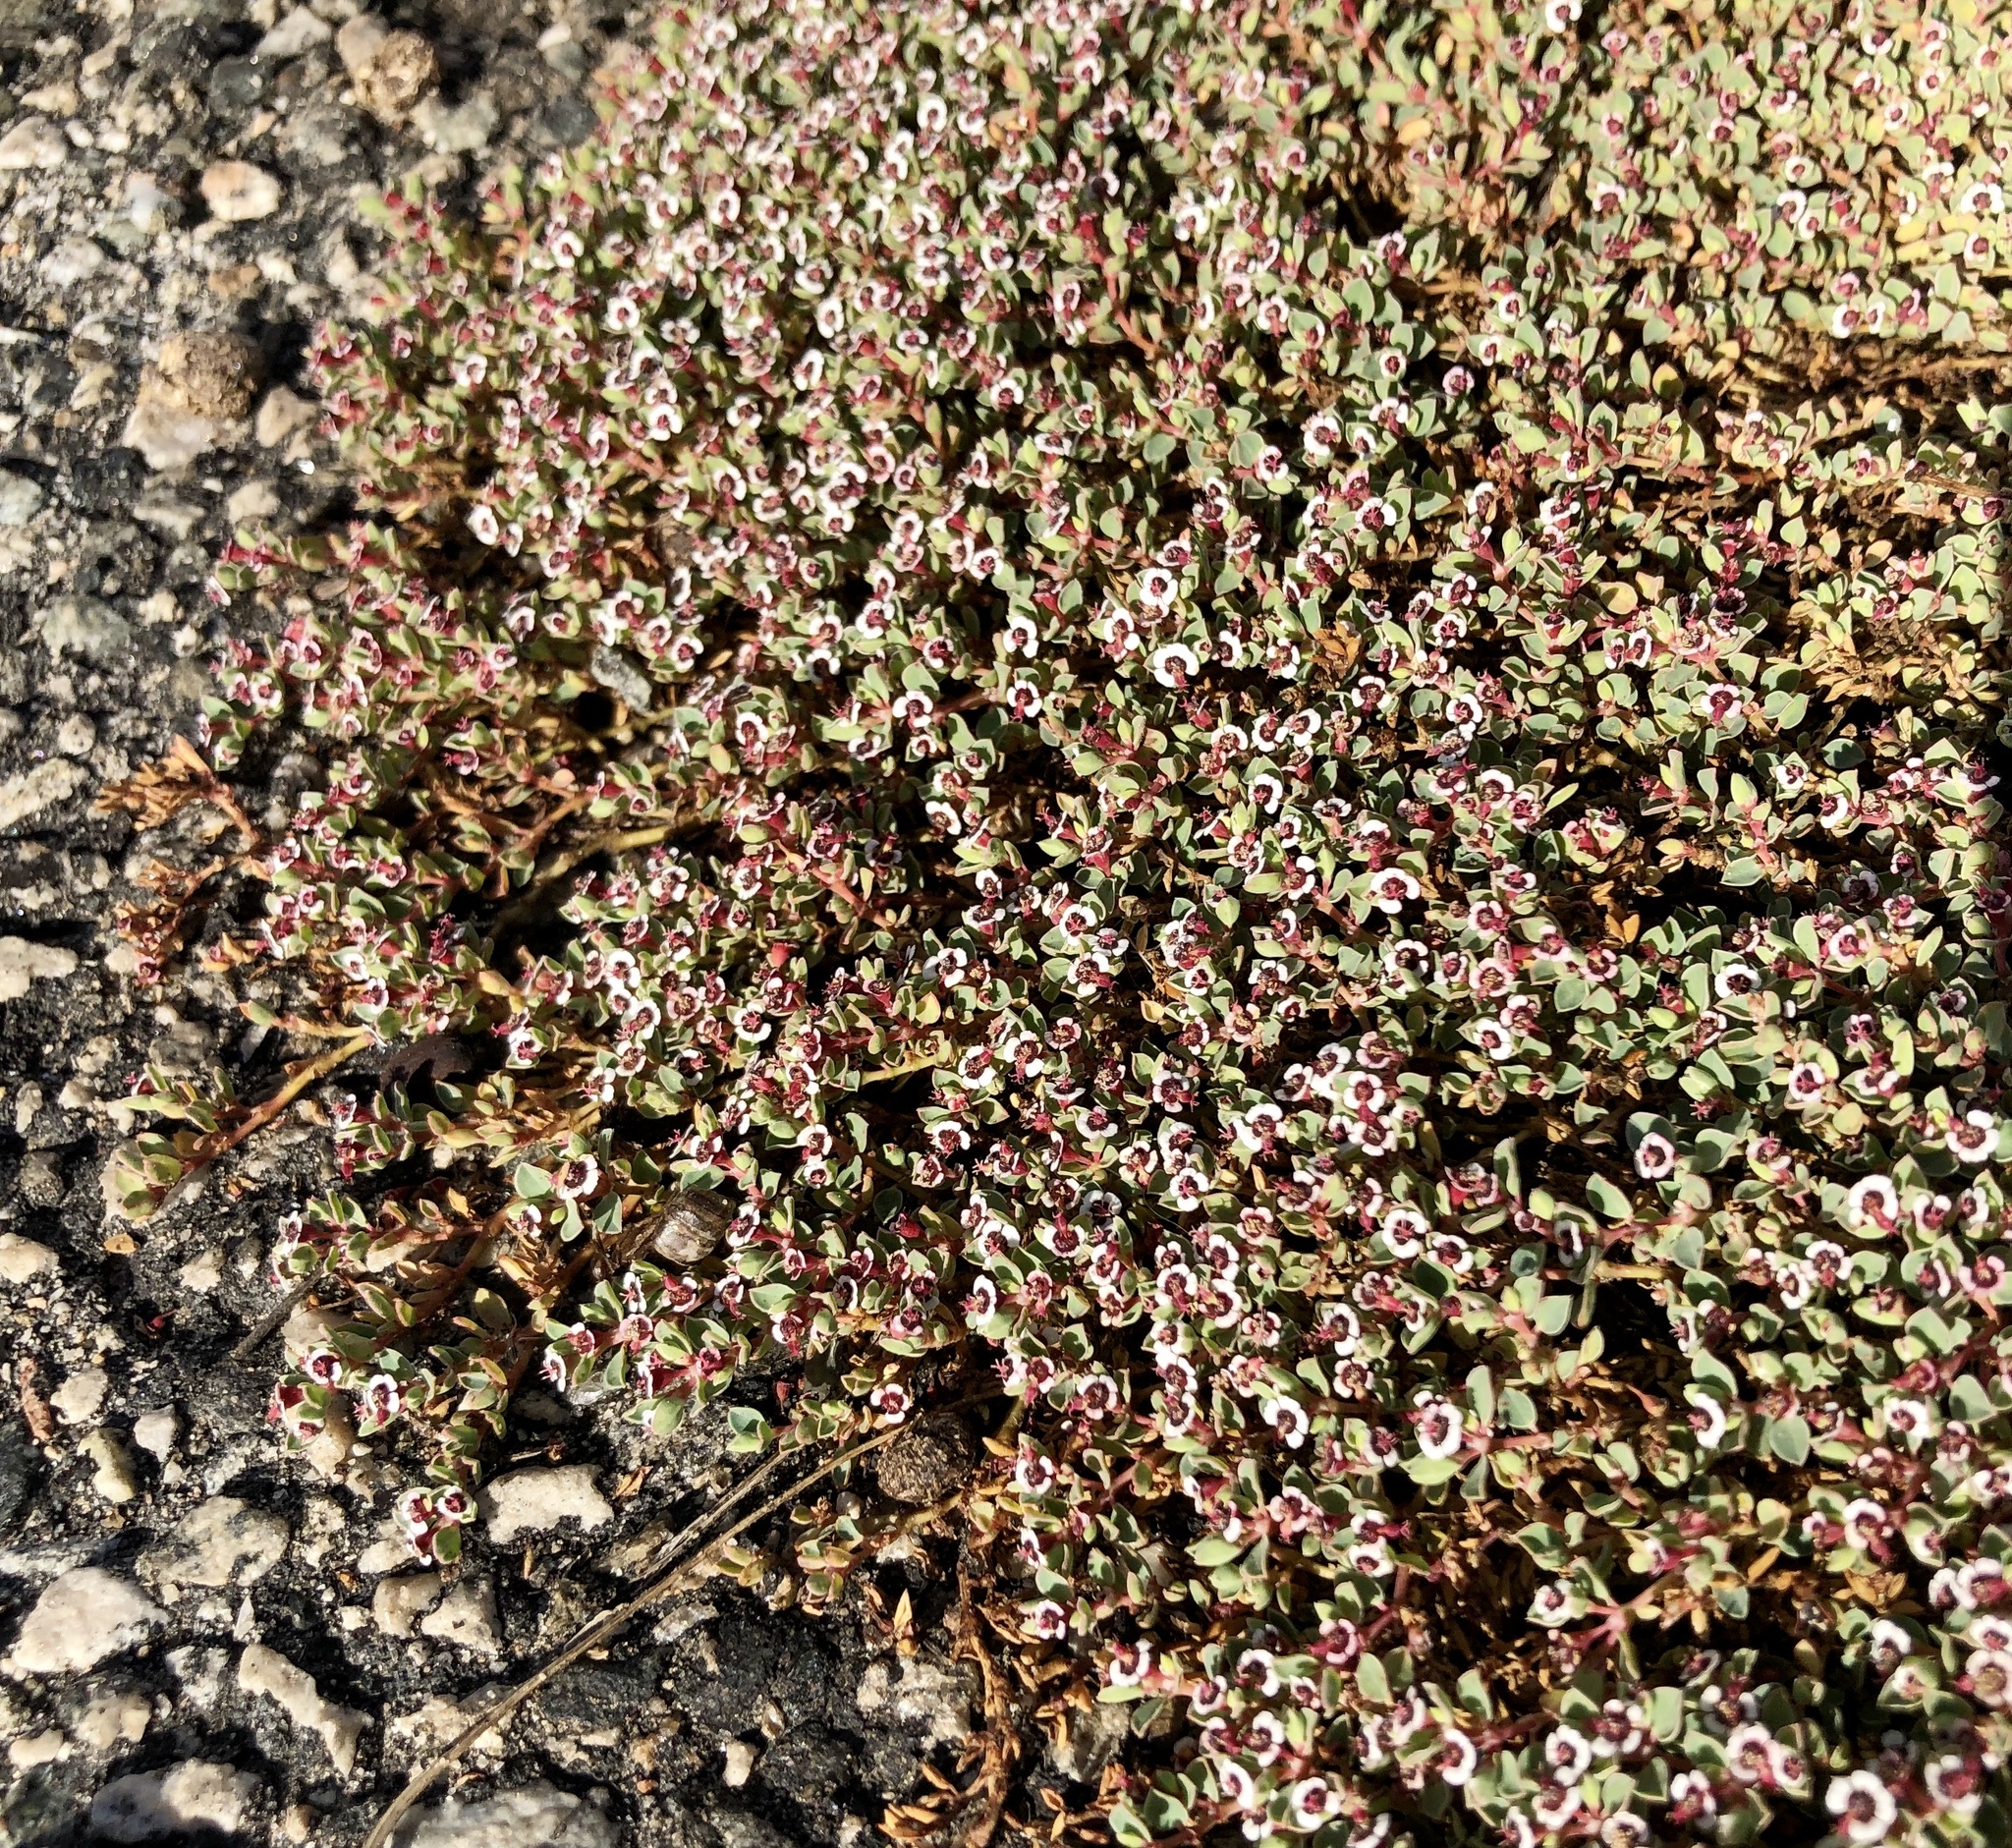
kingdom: Plantae
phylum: Tracheophyta
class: Magnoliopsida
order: Malpighiales
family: Euphorbiaceae
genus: Euphorbia
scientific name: Euphorbia albomarginata
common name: Whitemargin sandmat
